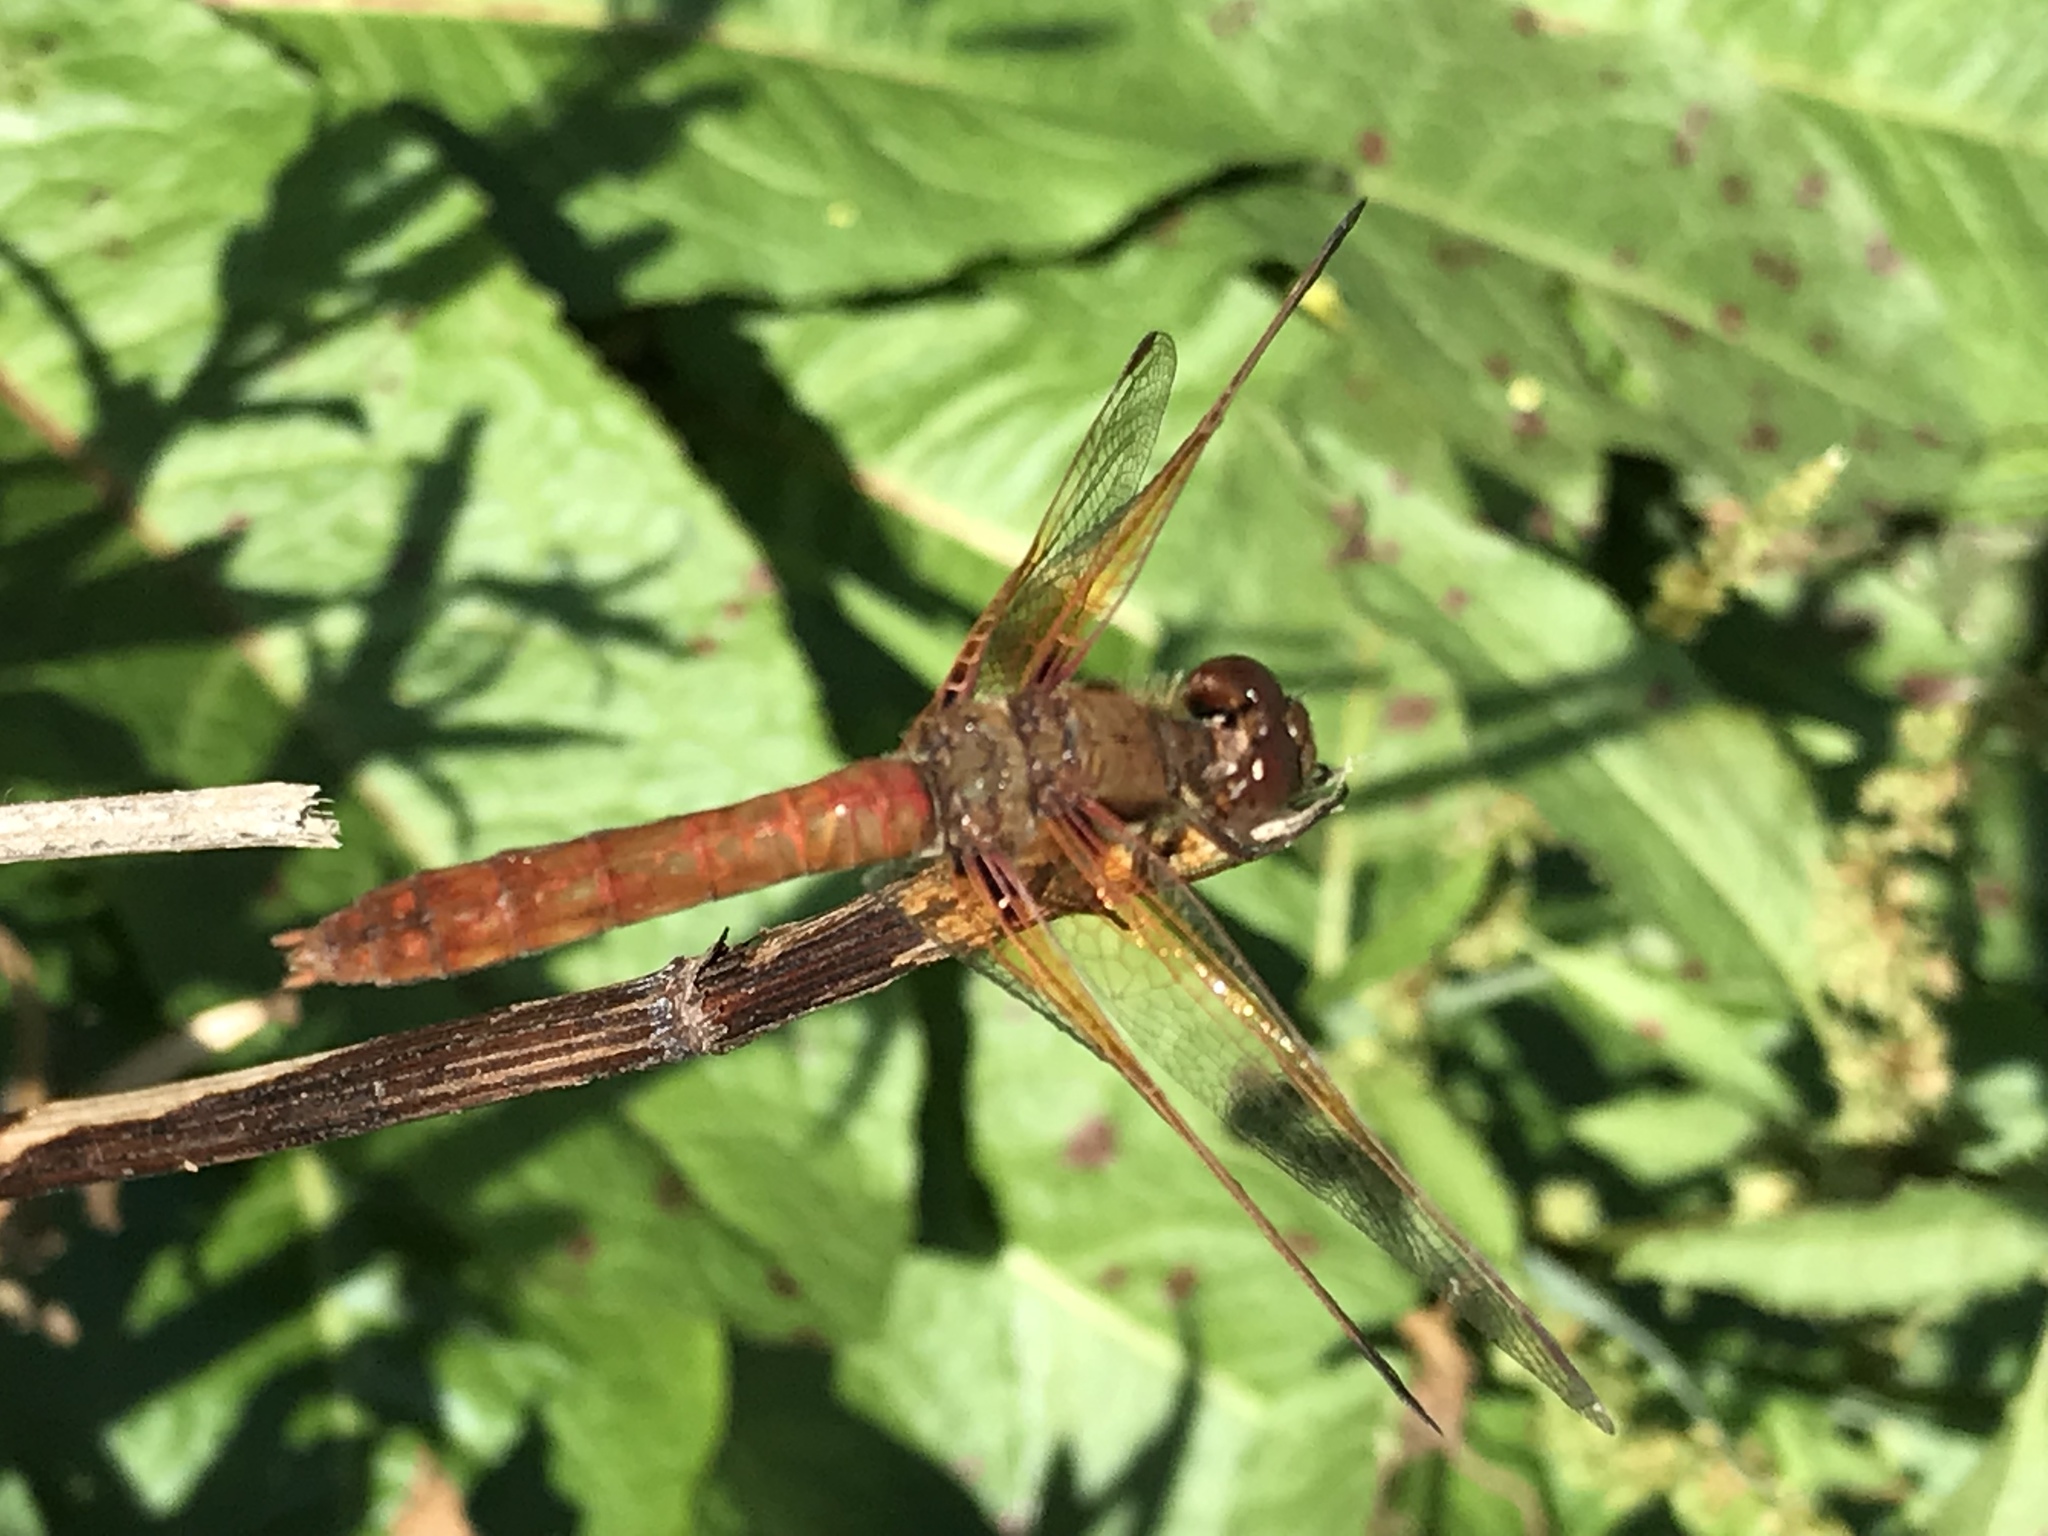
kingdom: Animalia
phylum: Arthropoda
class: Insecta
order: Odonata
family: Libellulidae
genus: Sympetrum
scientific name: Sympetrum illotum
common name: Cardinal meadowhawk
